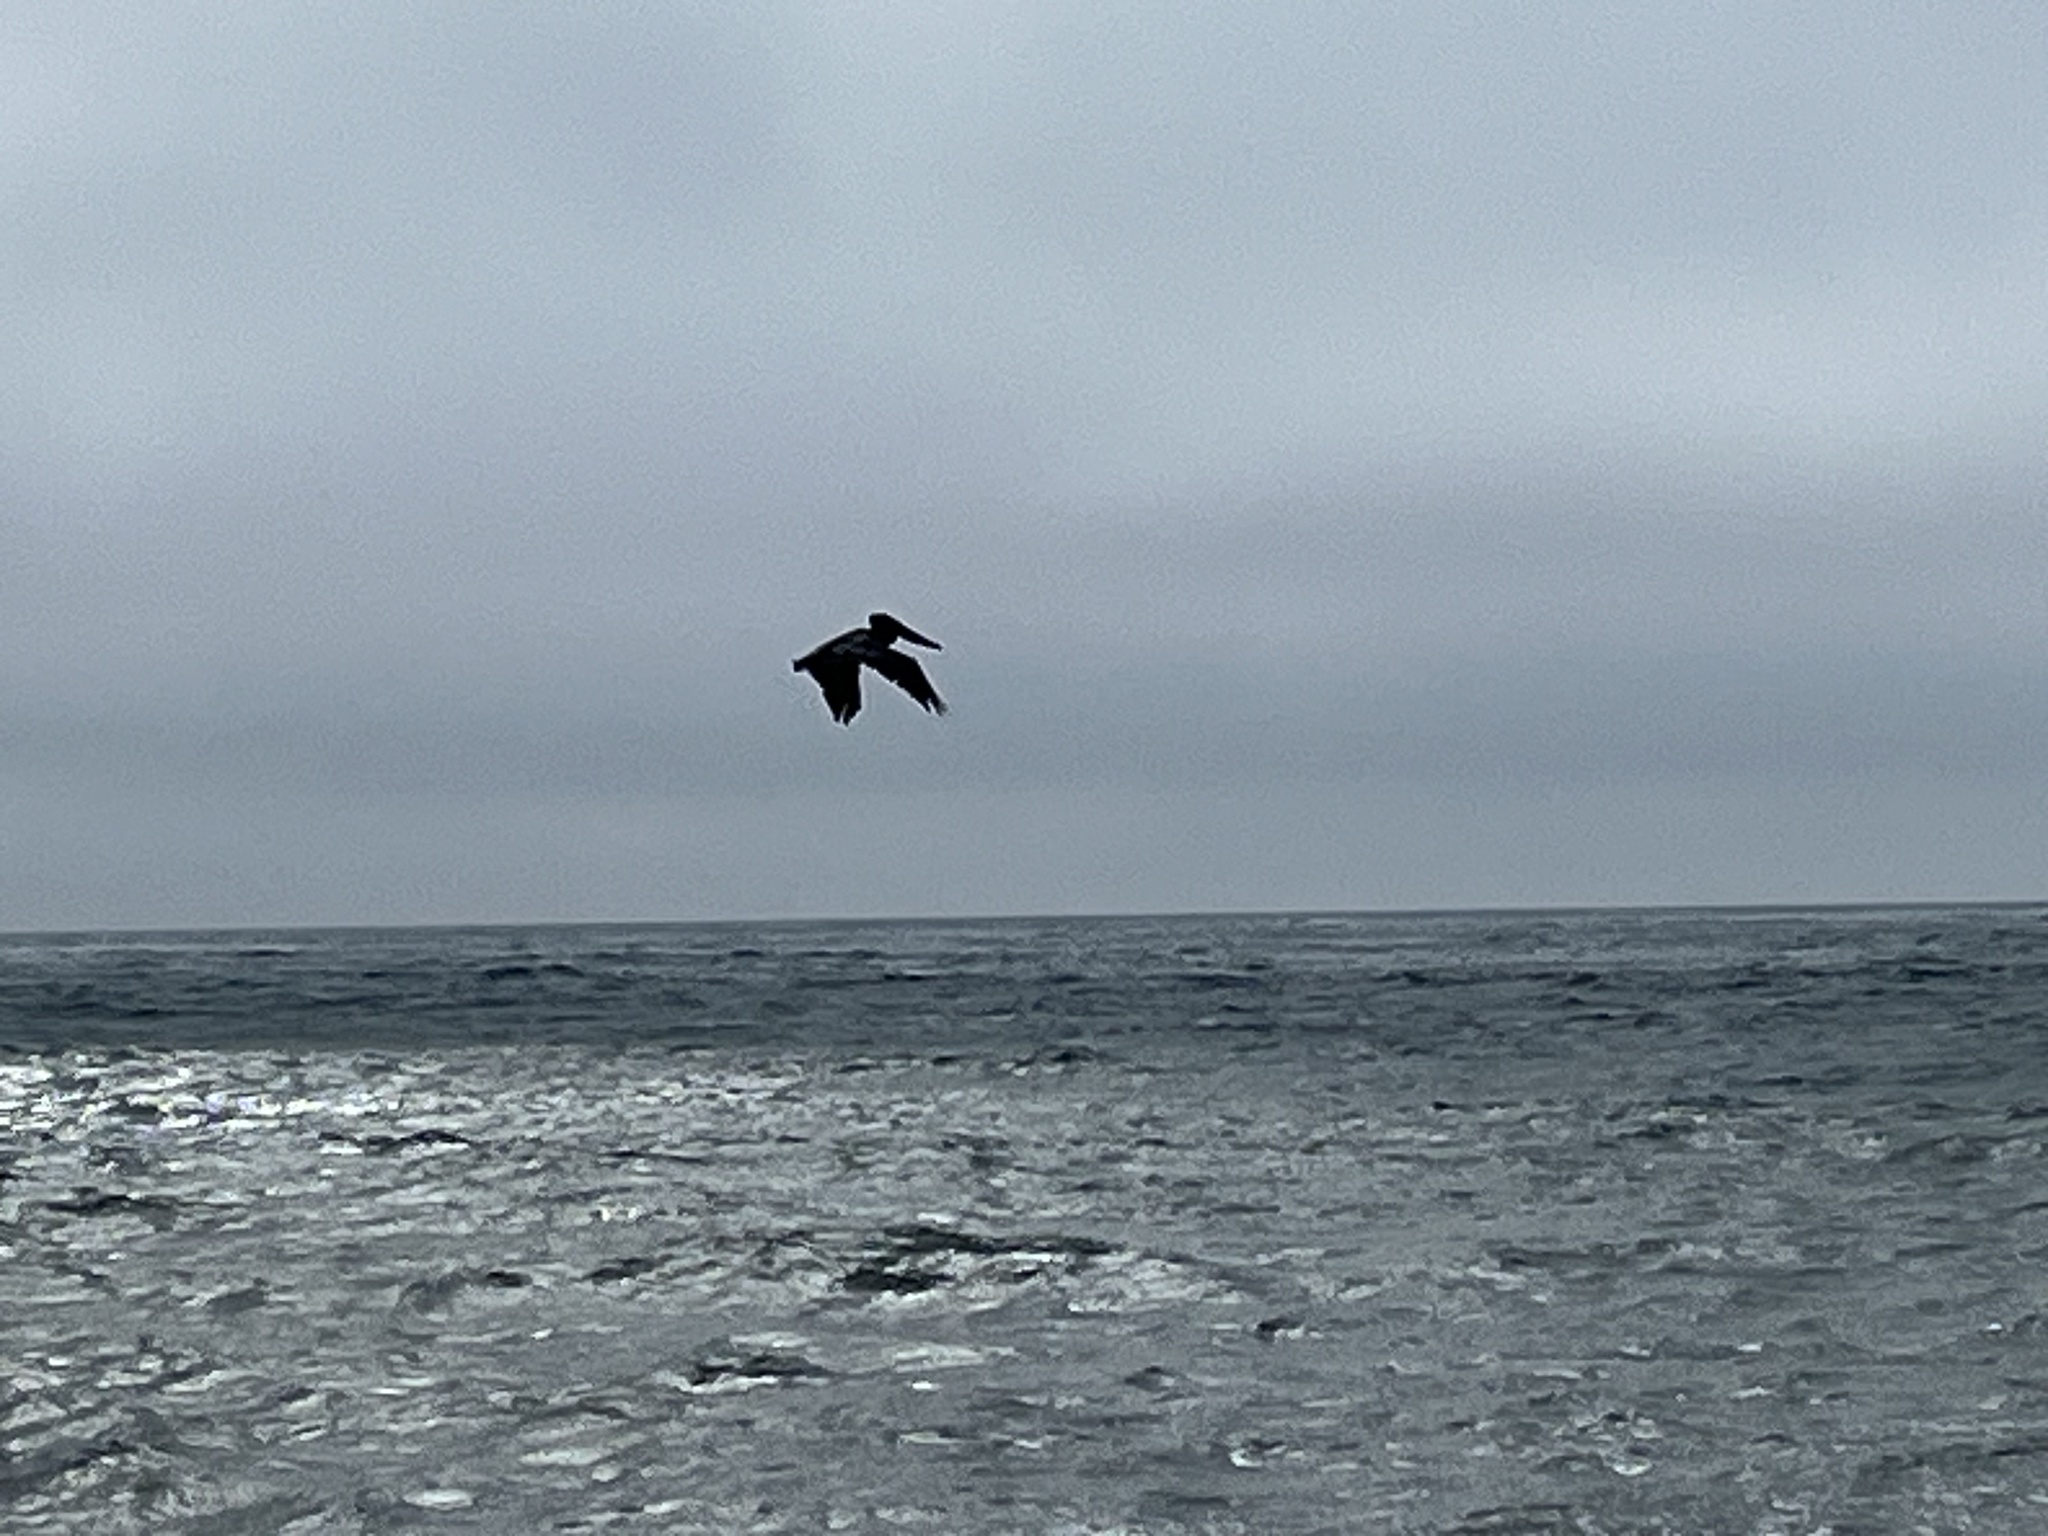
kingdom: Animalia
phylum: Chordata
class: Aves
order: Pelecaniformes
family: Pelecanidae
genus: Pelecanus
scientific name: Pelecanus occidentalis
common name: Brown pelican
